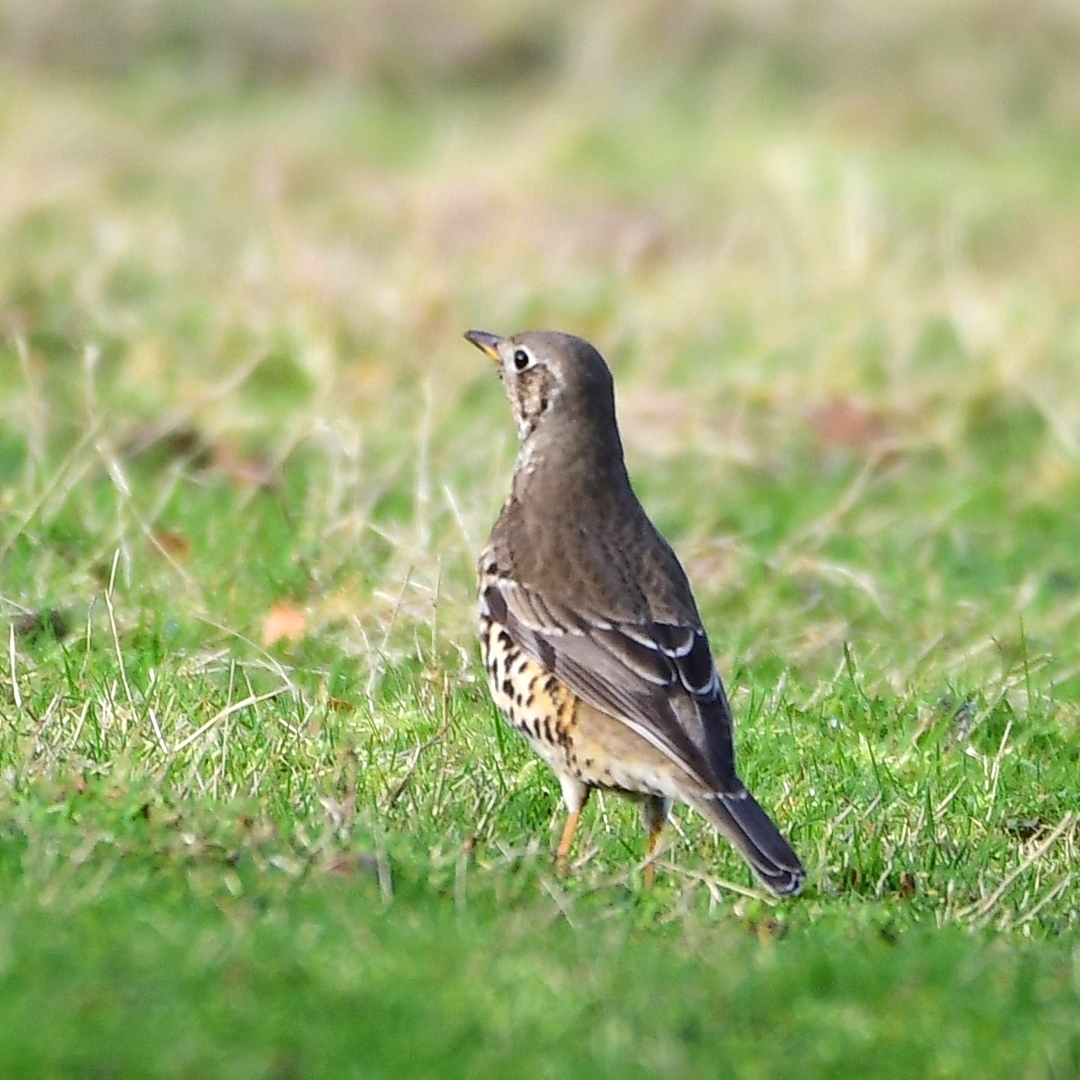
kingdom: Animalia
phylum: Chordata
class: Aves
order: Passeriformes
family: Turdidae
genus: Turdus
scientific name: Turdus viscivorus
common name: Mistle thrush
